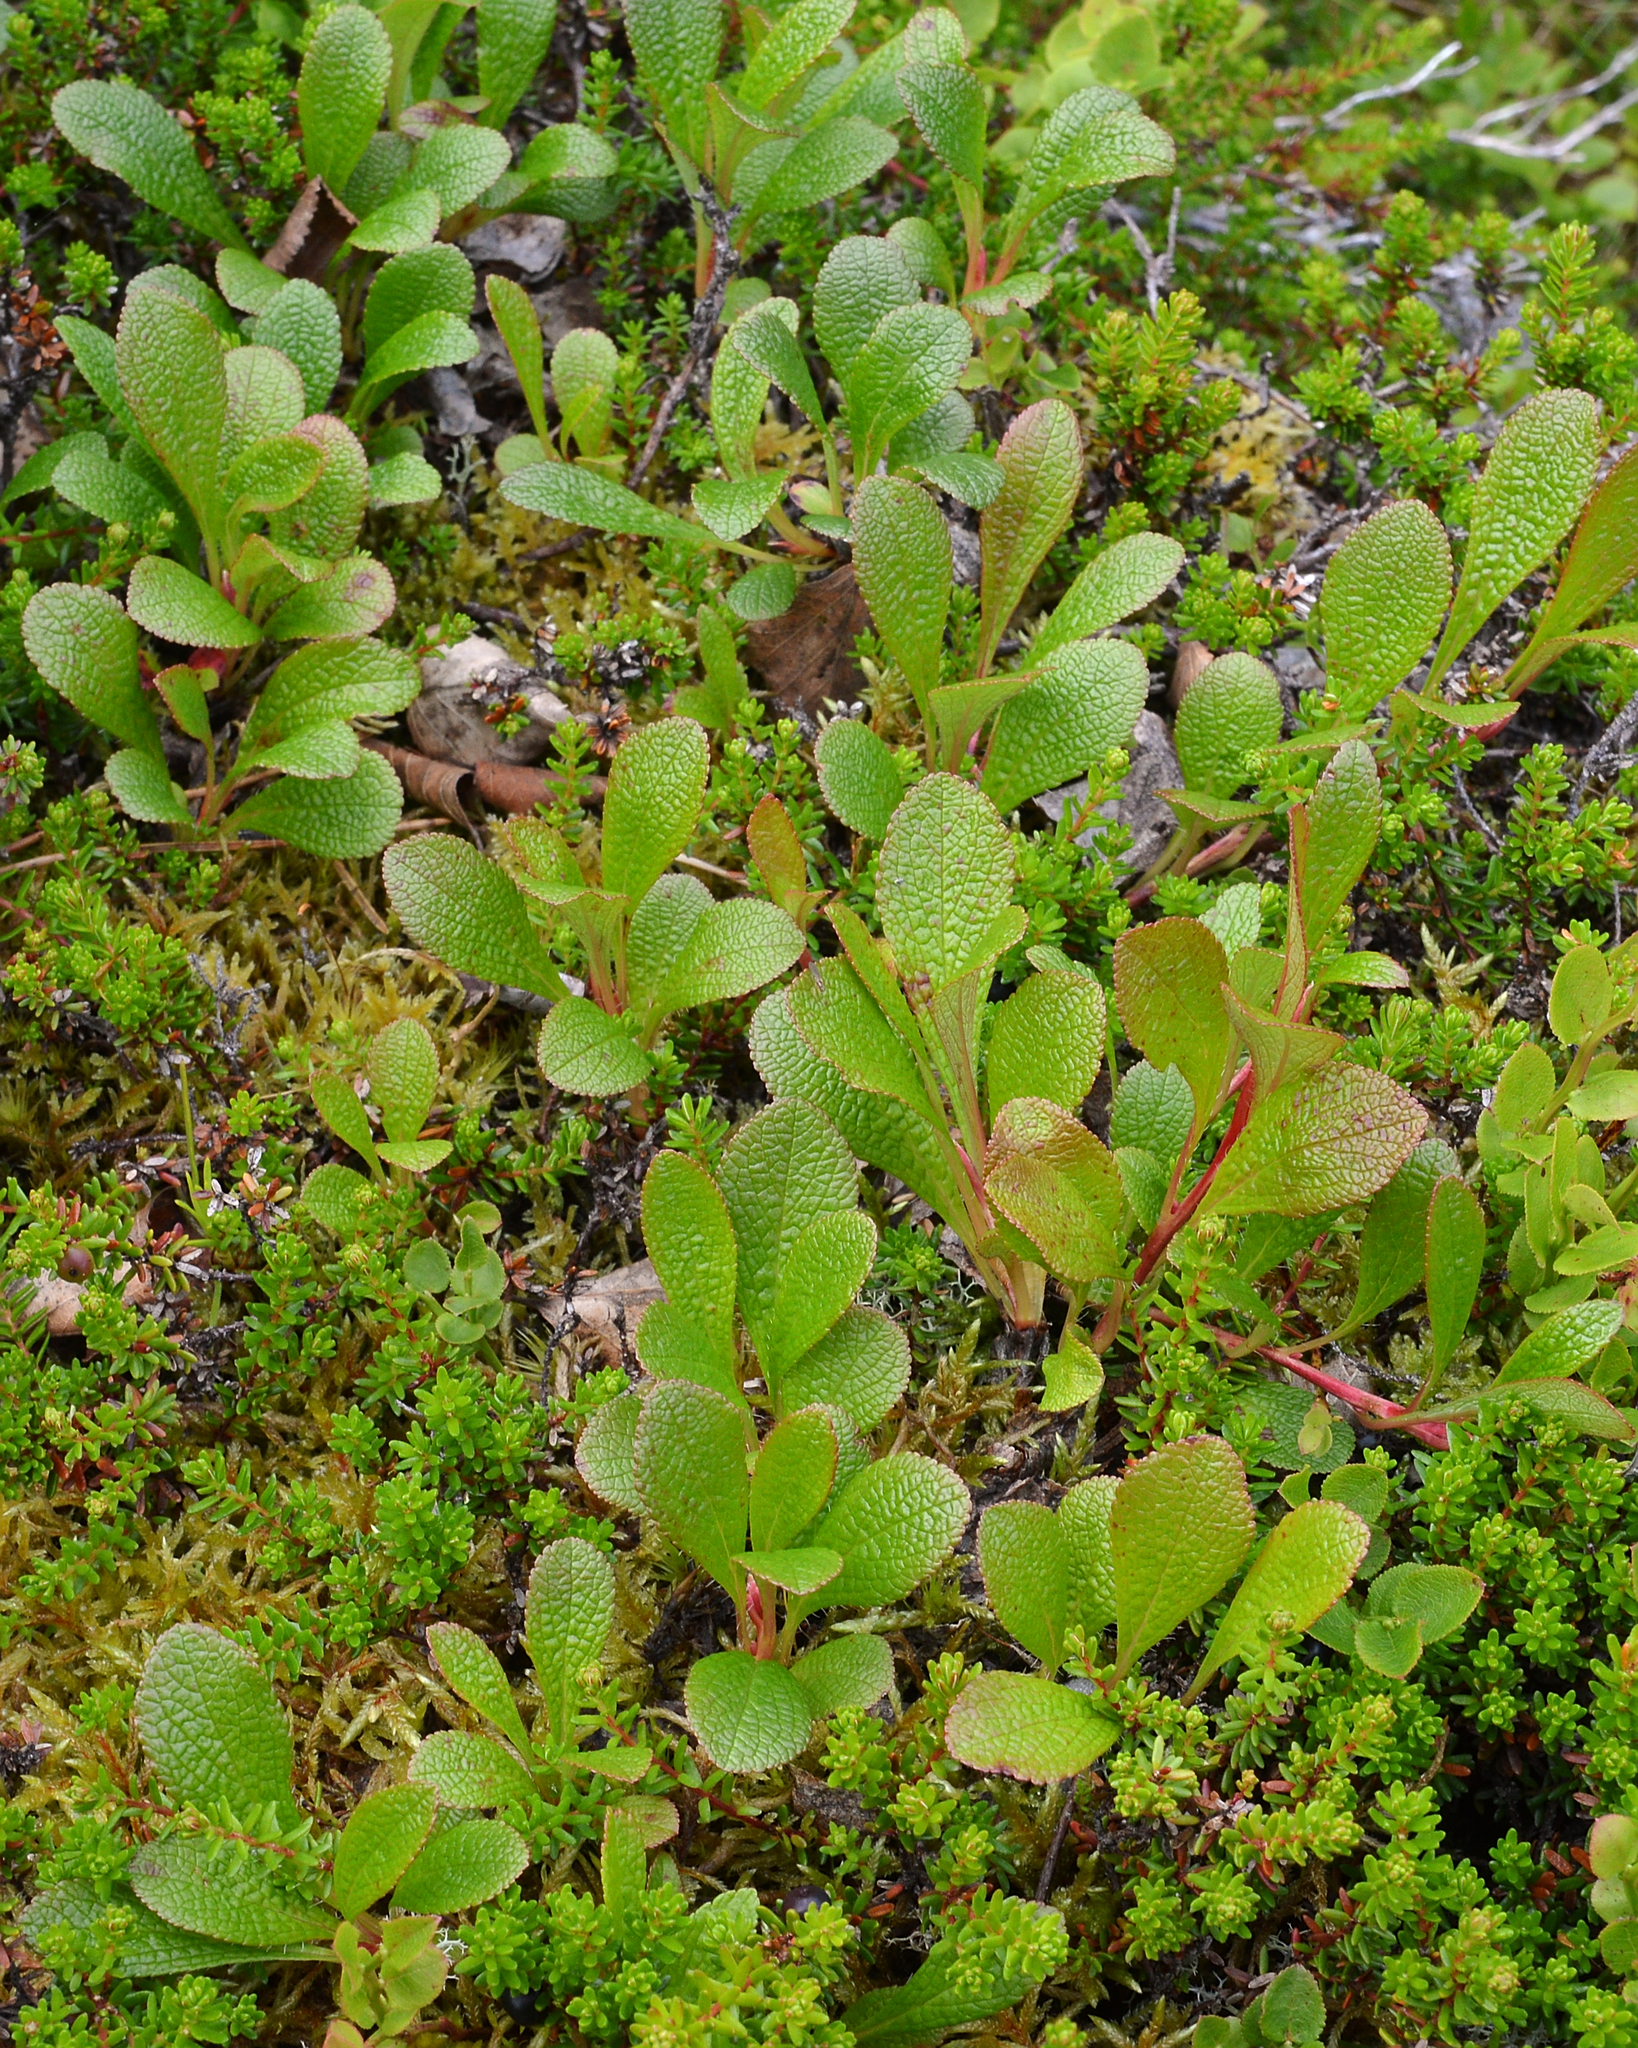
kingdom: Plantae
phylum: Tracheophyta
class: Magnoliopsida
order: Ericales
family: Ericaceae
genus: Arctostaphylos
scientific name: Arctostaphylos alpinus
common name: Alpine bearberry
